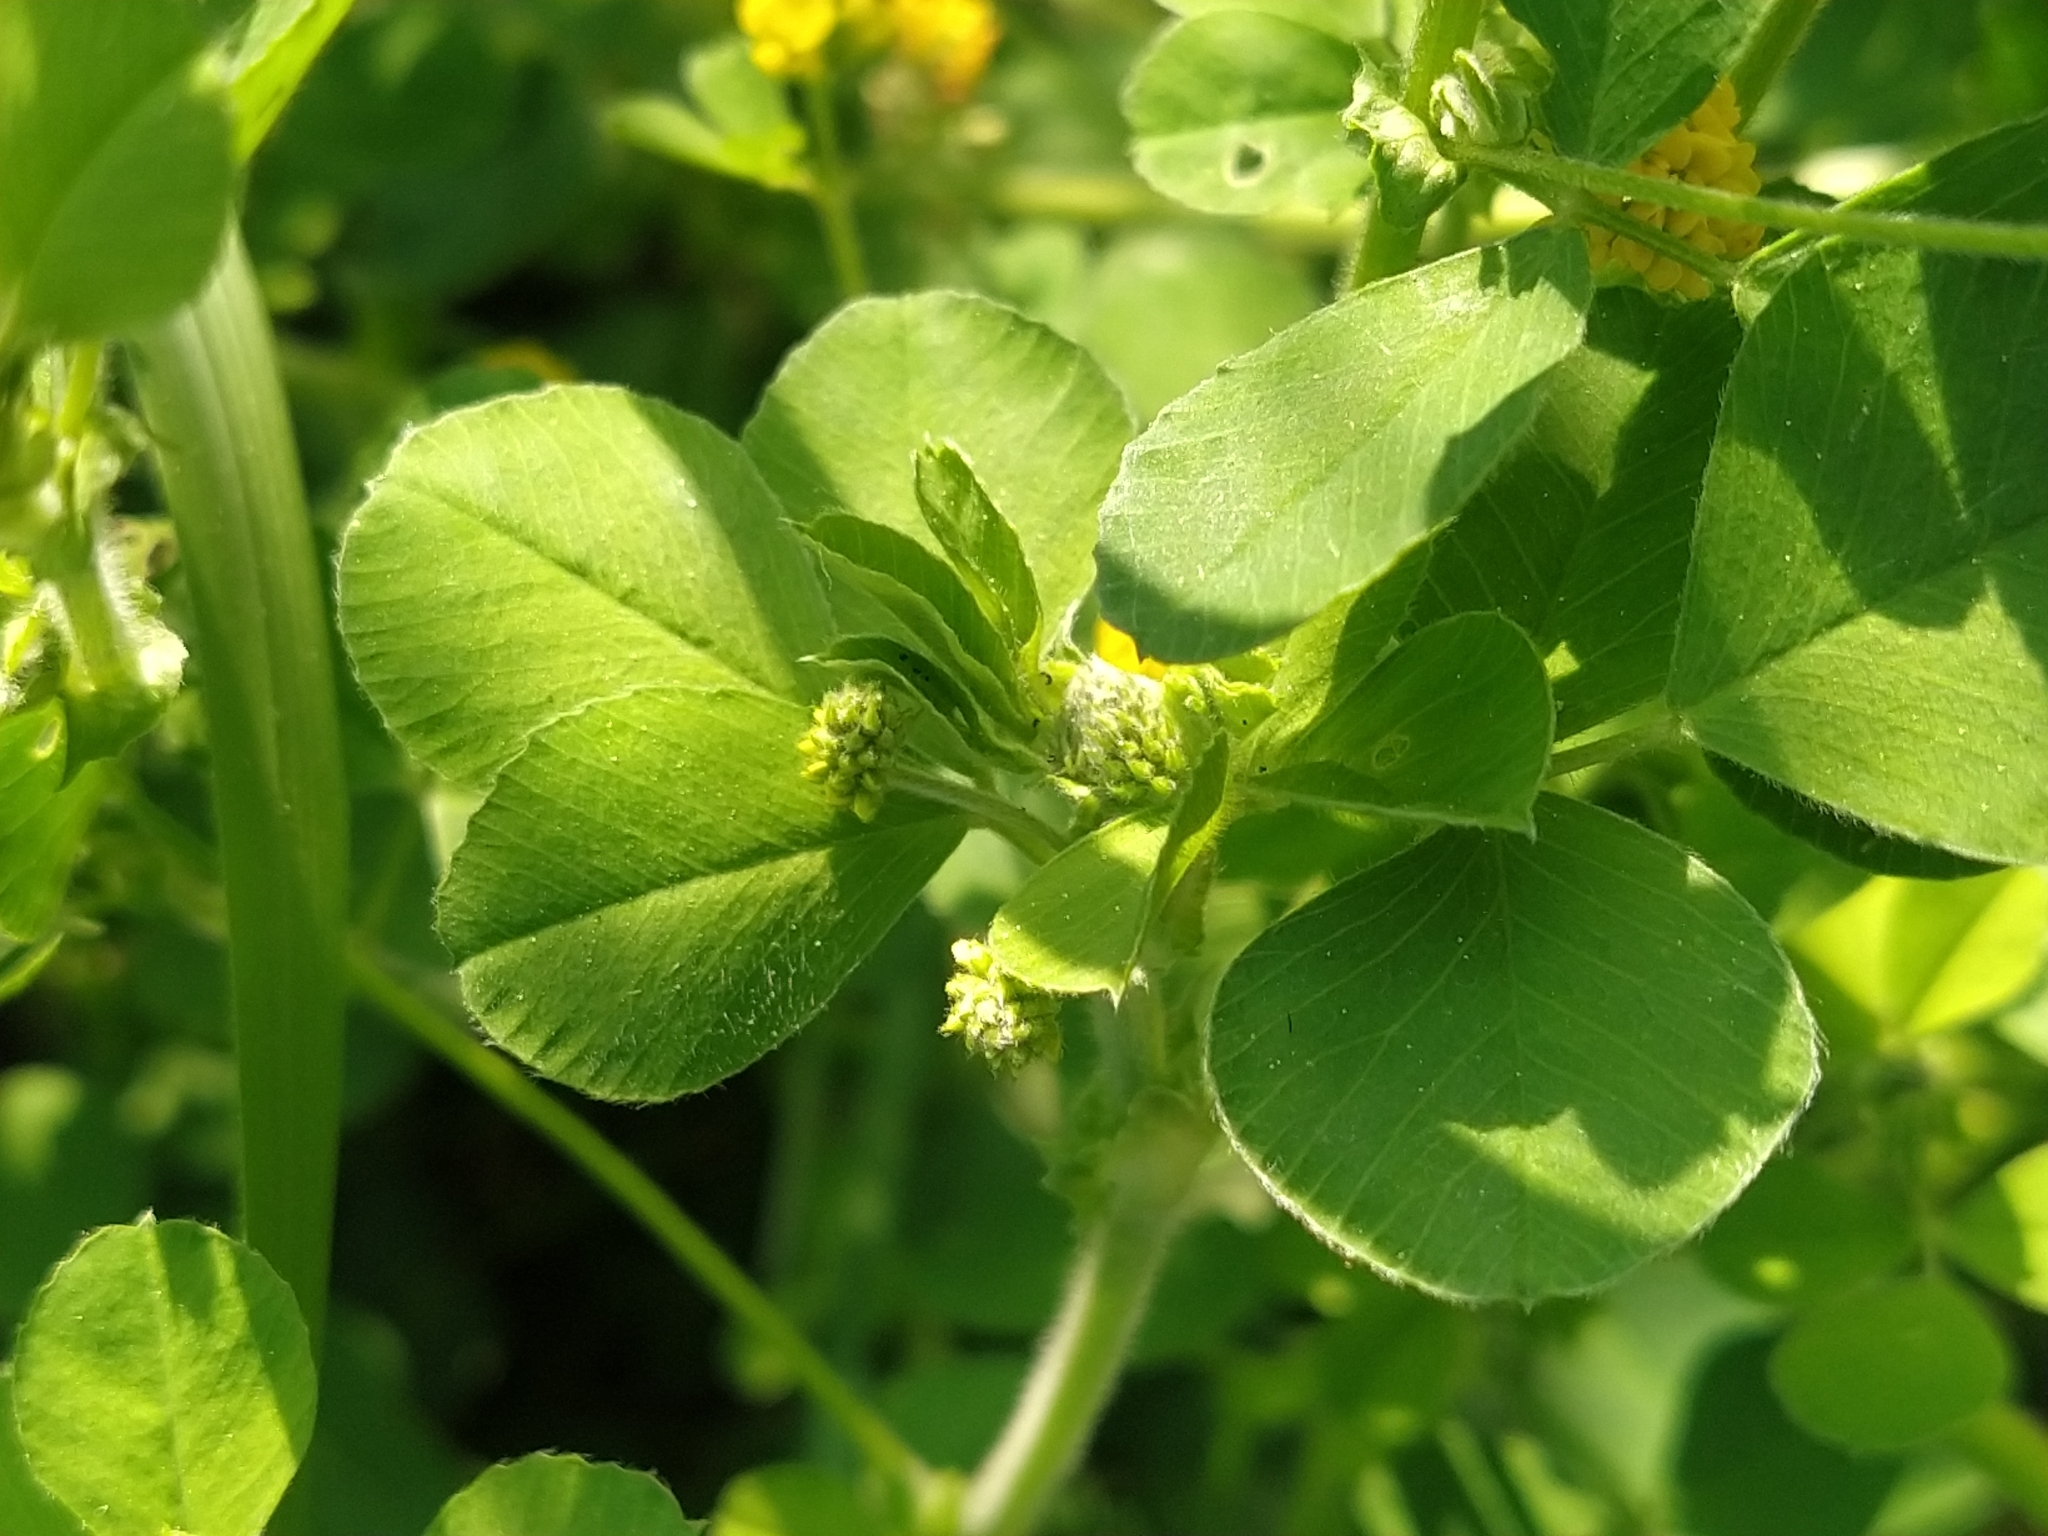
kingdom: Plantae
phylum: Tracheophyta
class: Magnoliopsida
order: Fabales
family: Fabaceae
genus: Medicago
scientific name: Medicago lupulina
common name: Black medick
